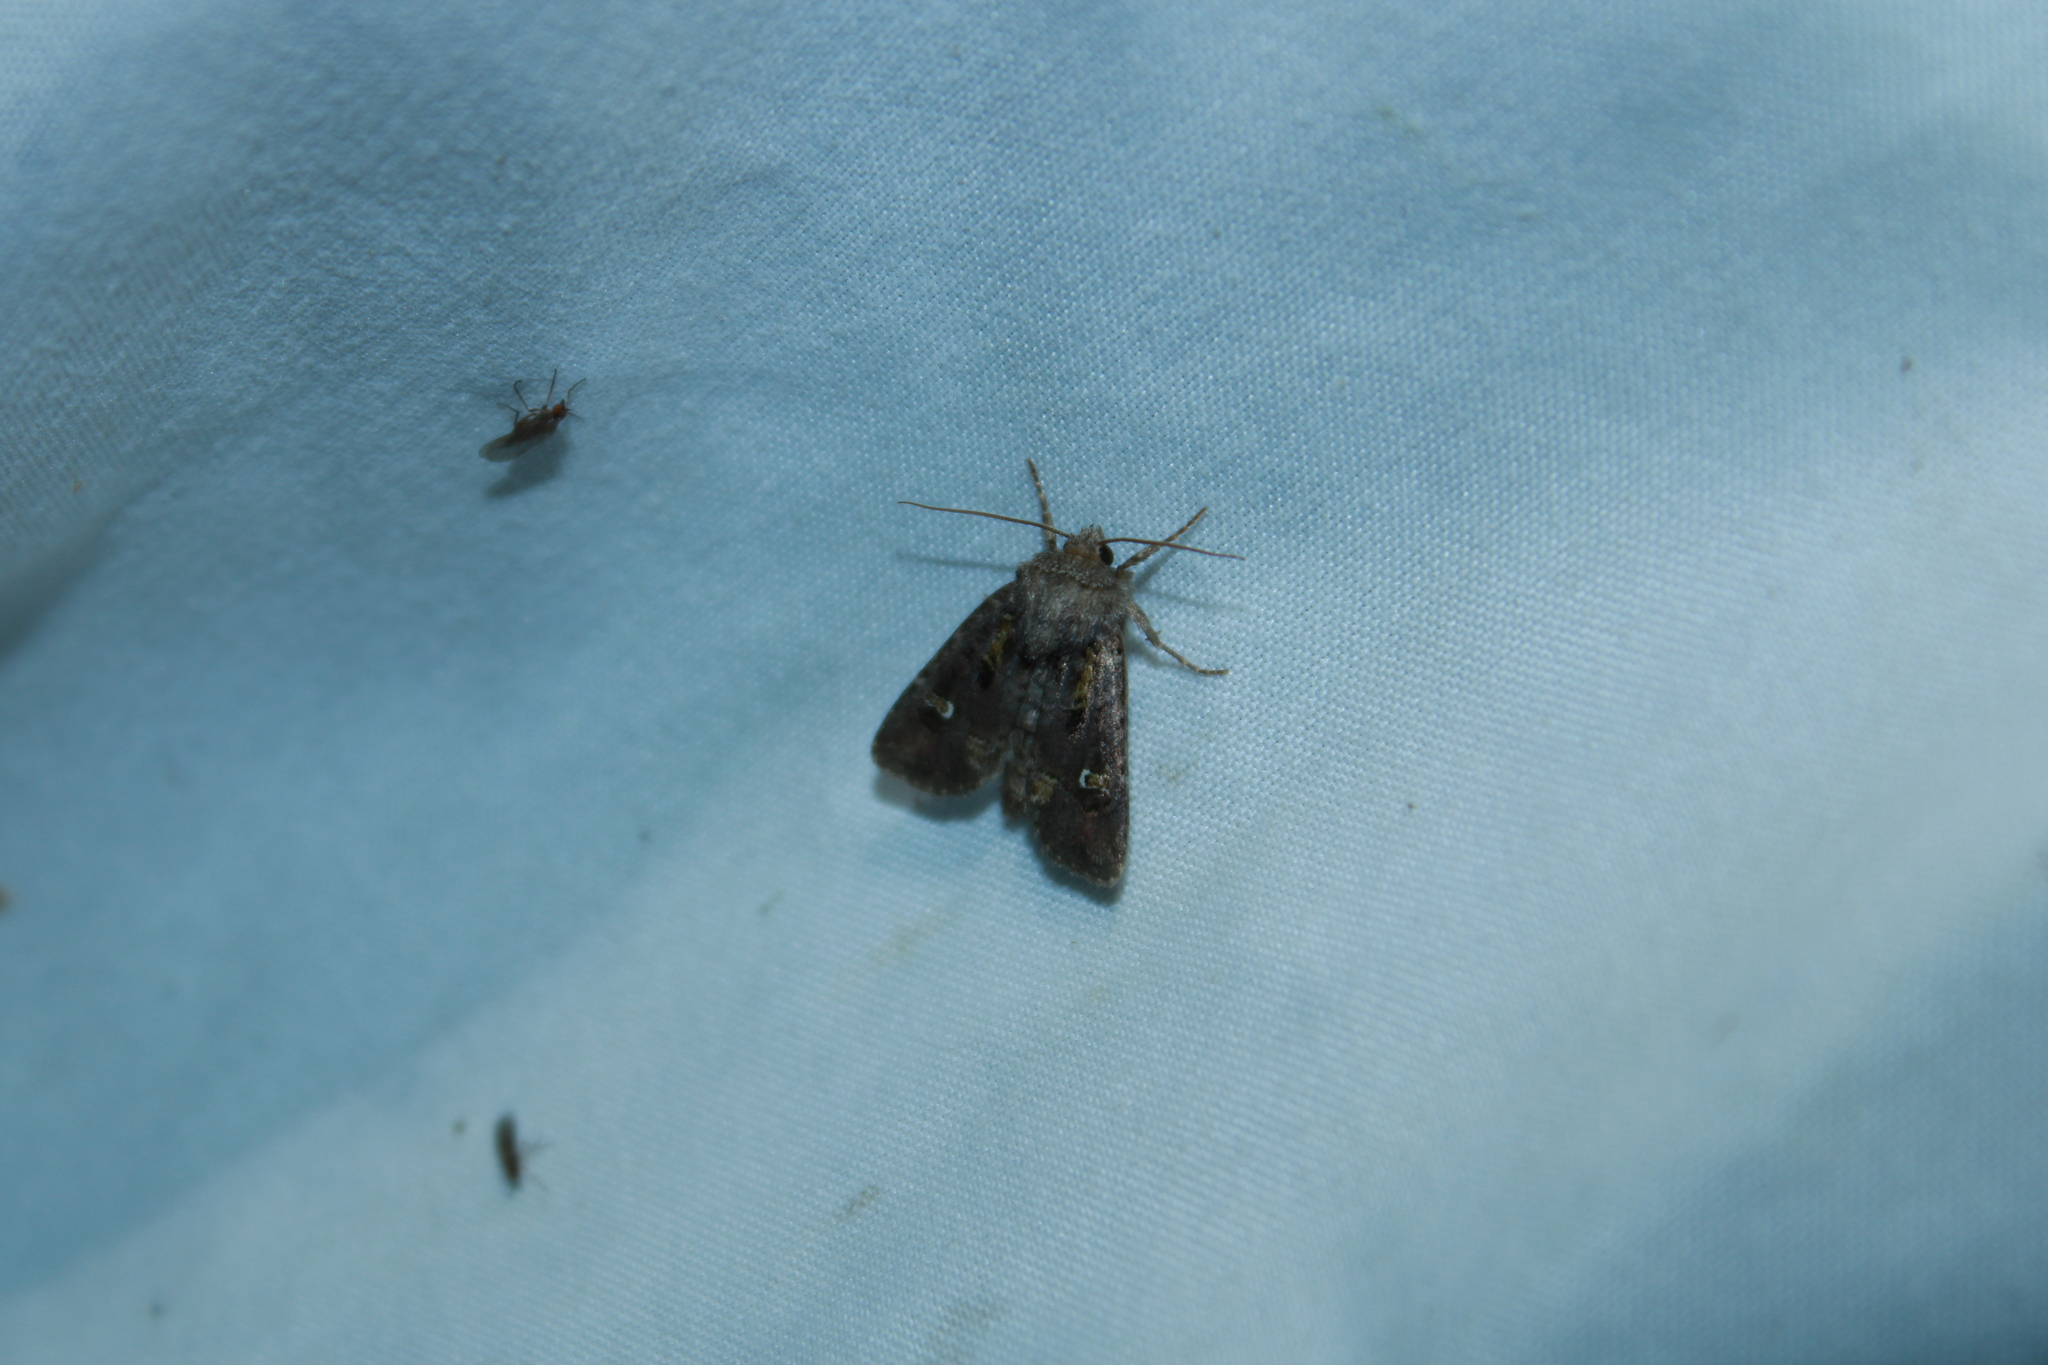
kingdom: Animalia
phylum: Arthropoda
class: Insecta
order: Lepidoptera
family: Noctuidae
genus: Lacinipolia
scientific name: Lacinipolia renigera
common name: Kidney-spotted minor
